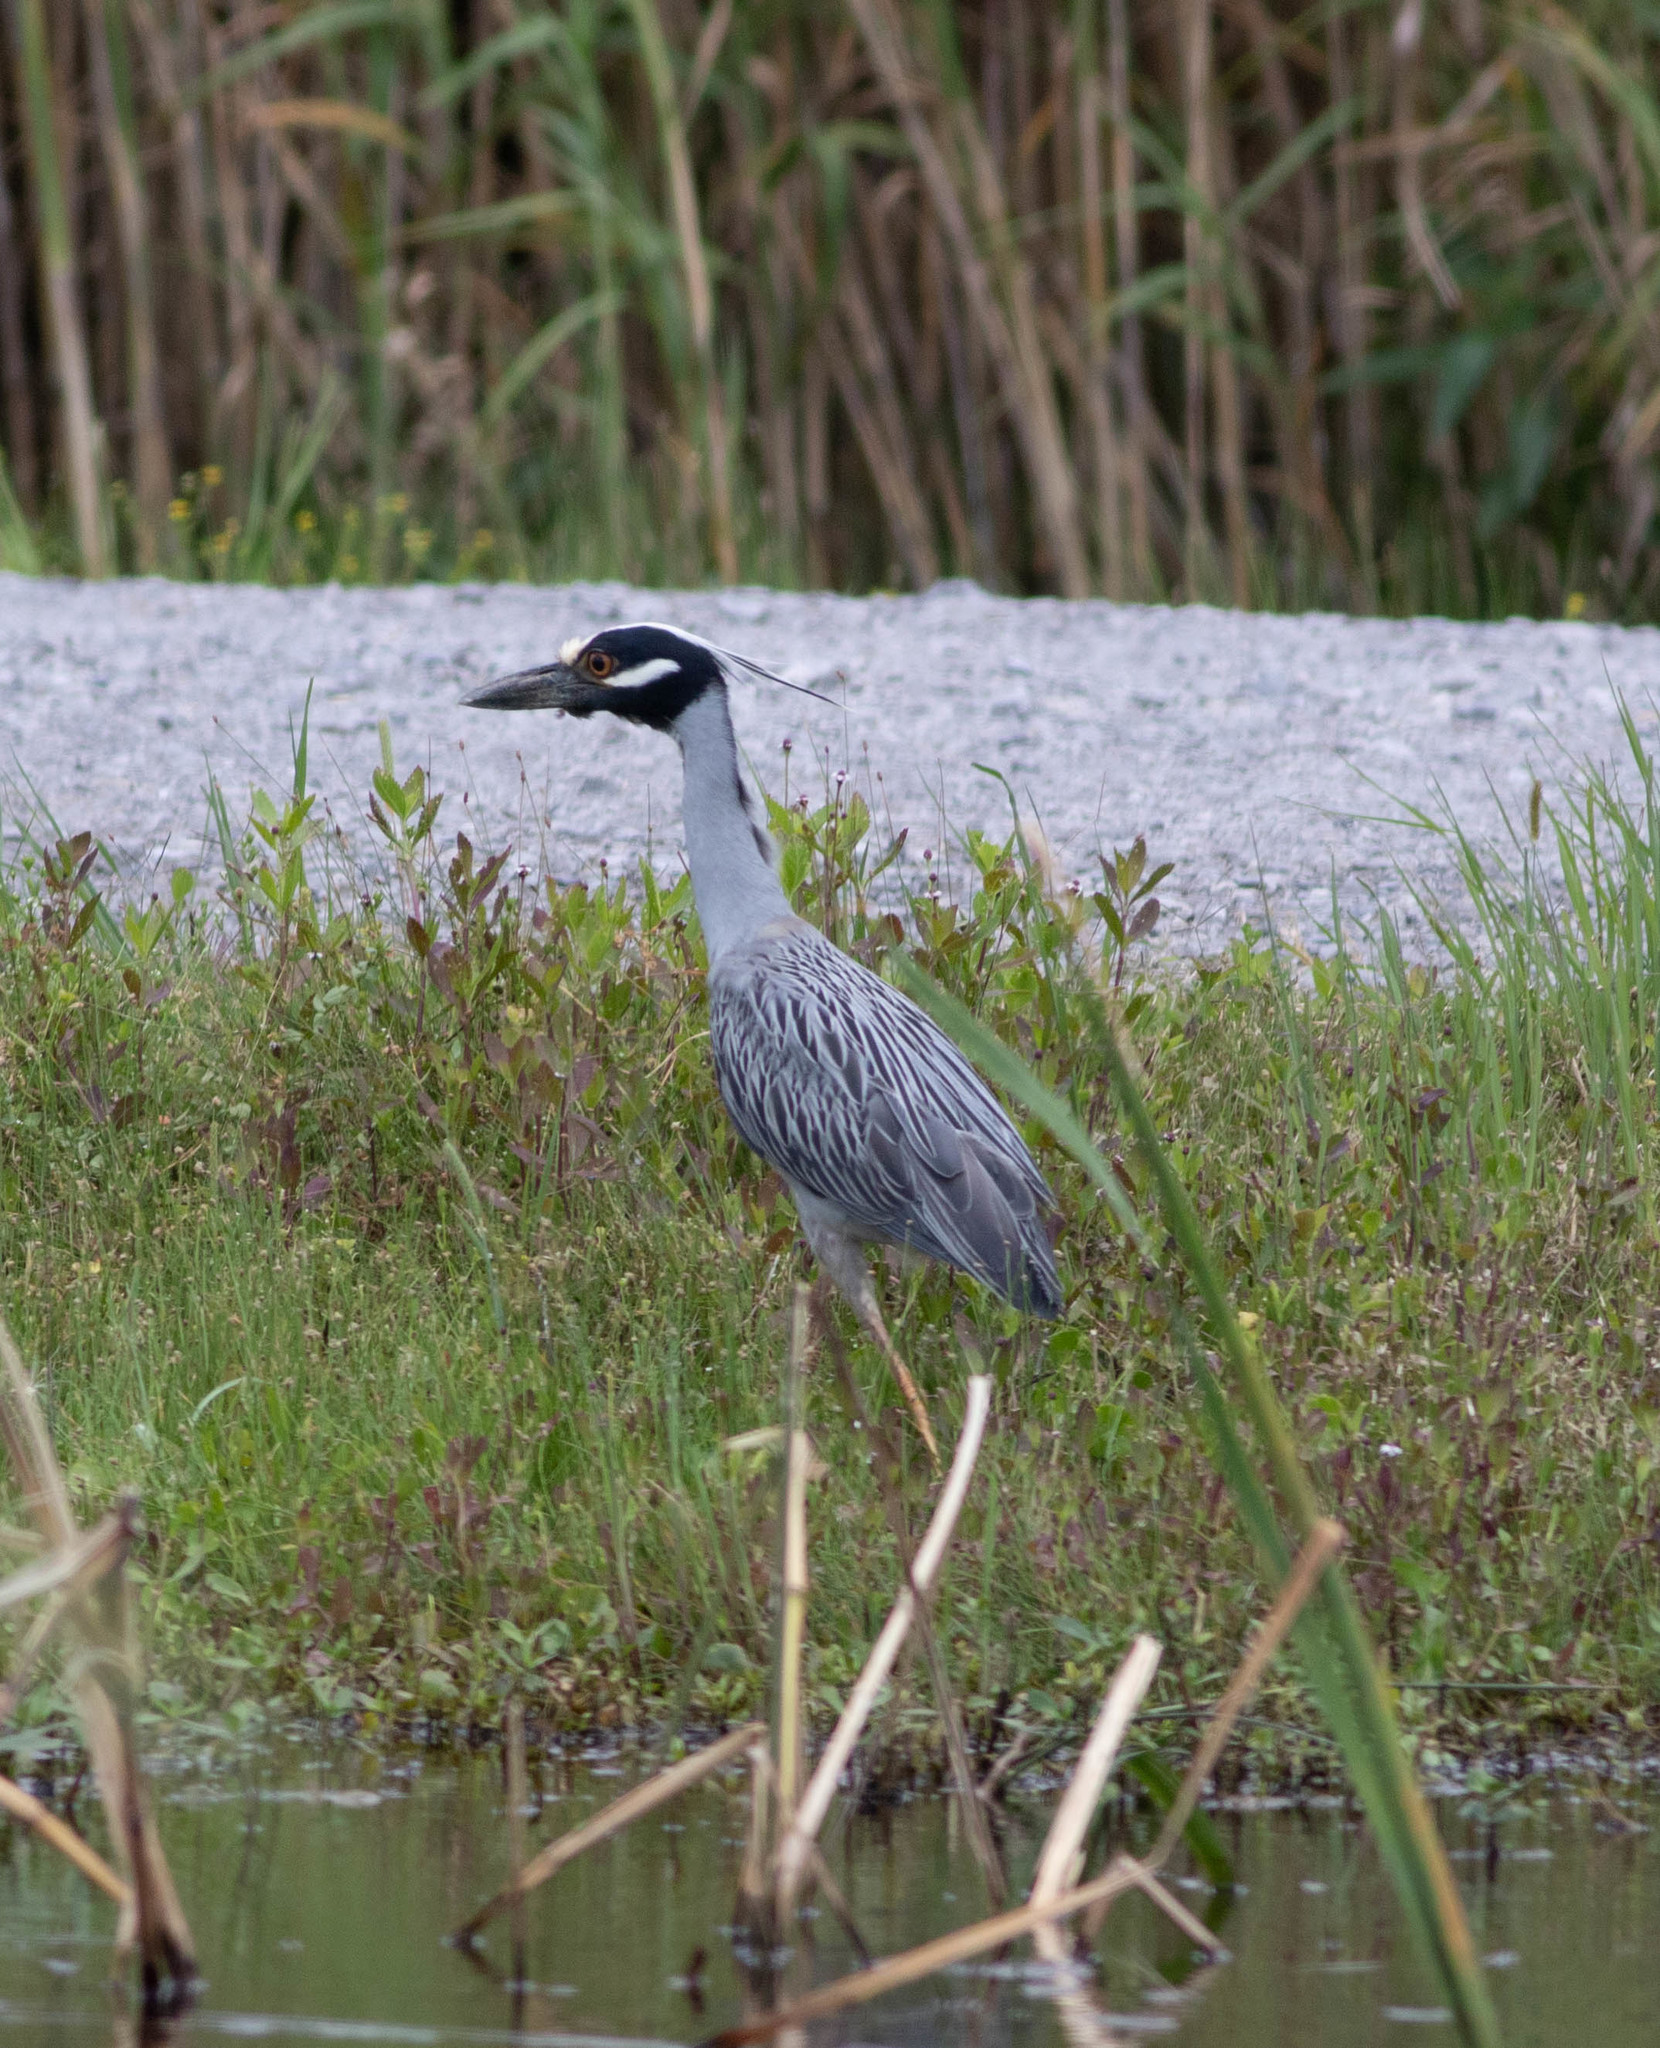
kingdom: Animalia
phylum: Chordata
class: Aves
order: Pelecaniformes
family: Ardeidae
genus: Nyctanassa
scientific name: Nyctanassa violacea
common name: Yellow-crowned night heron
